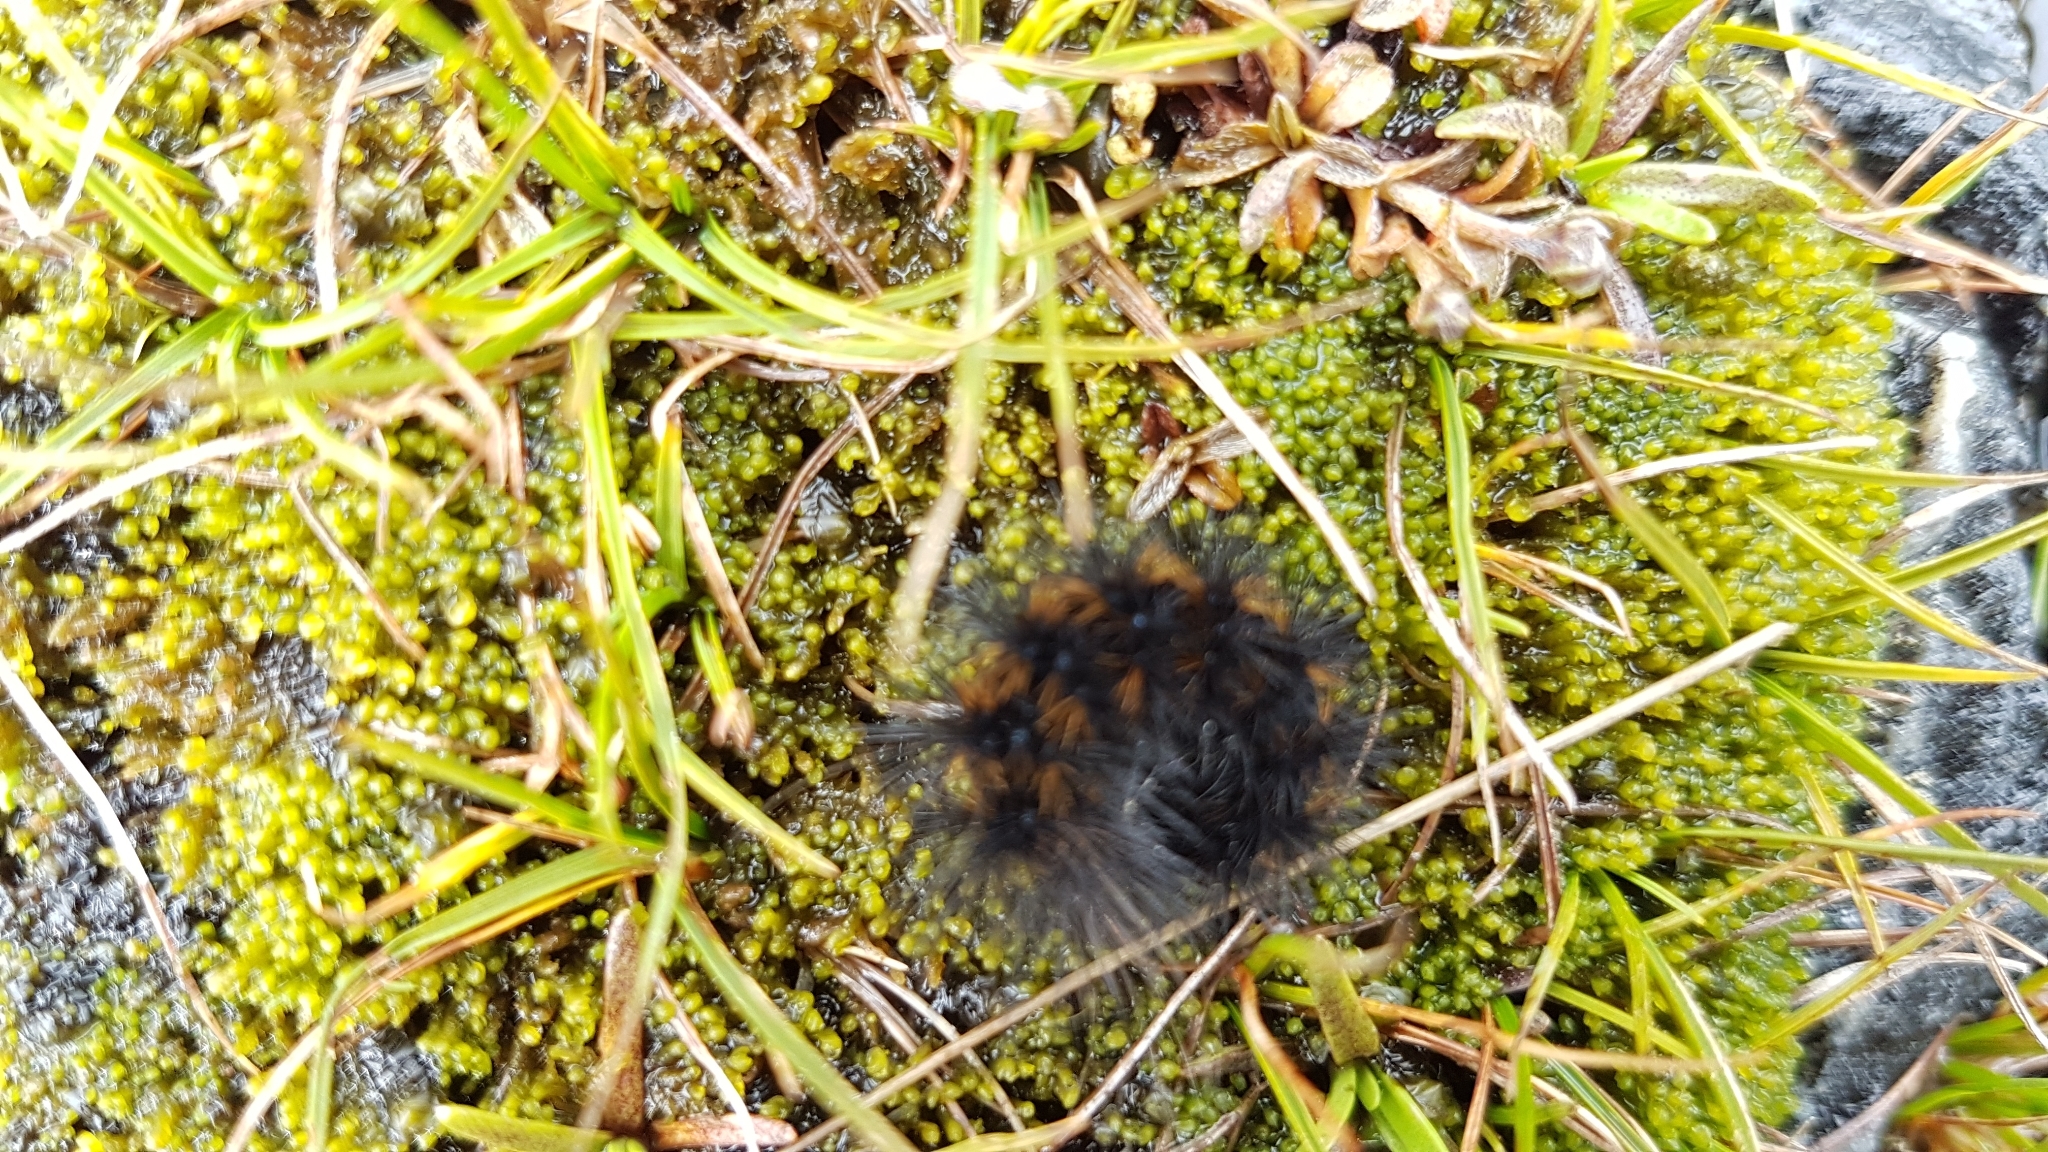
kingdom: Animalia
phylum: Arthropoda
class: Insecta
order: Lepidoptera
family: Erebidae
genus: Metacrias
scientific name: Metacrias huttoni
